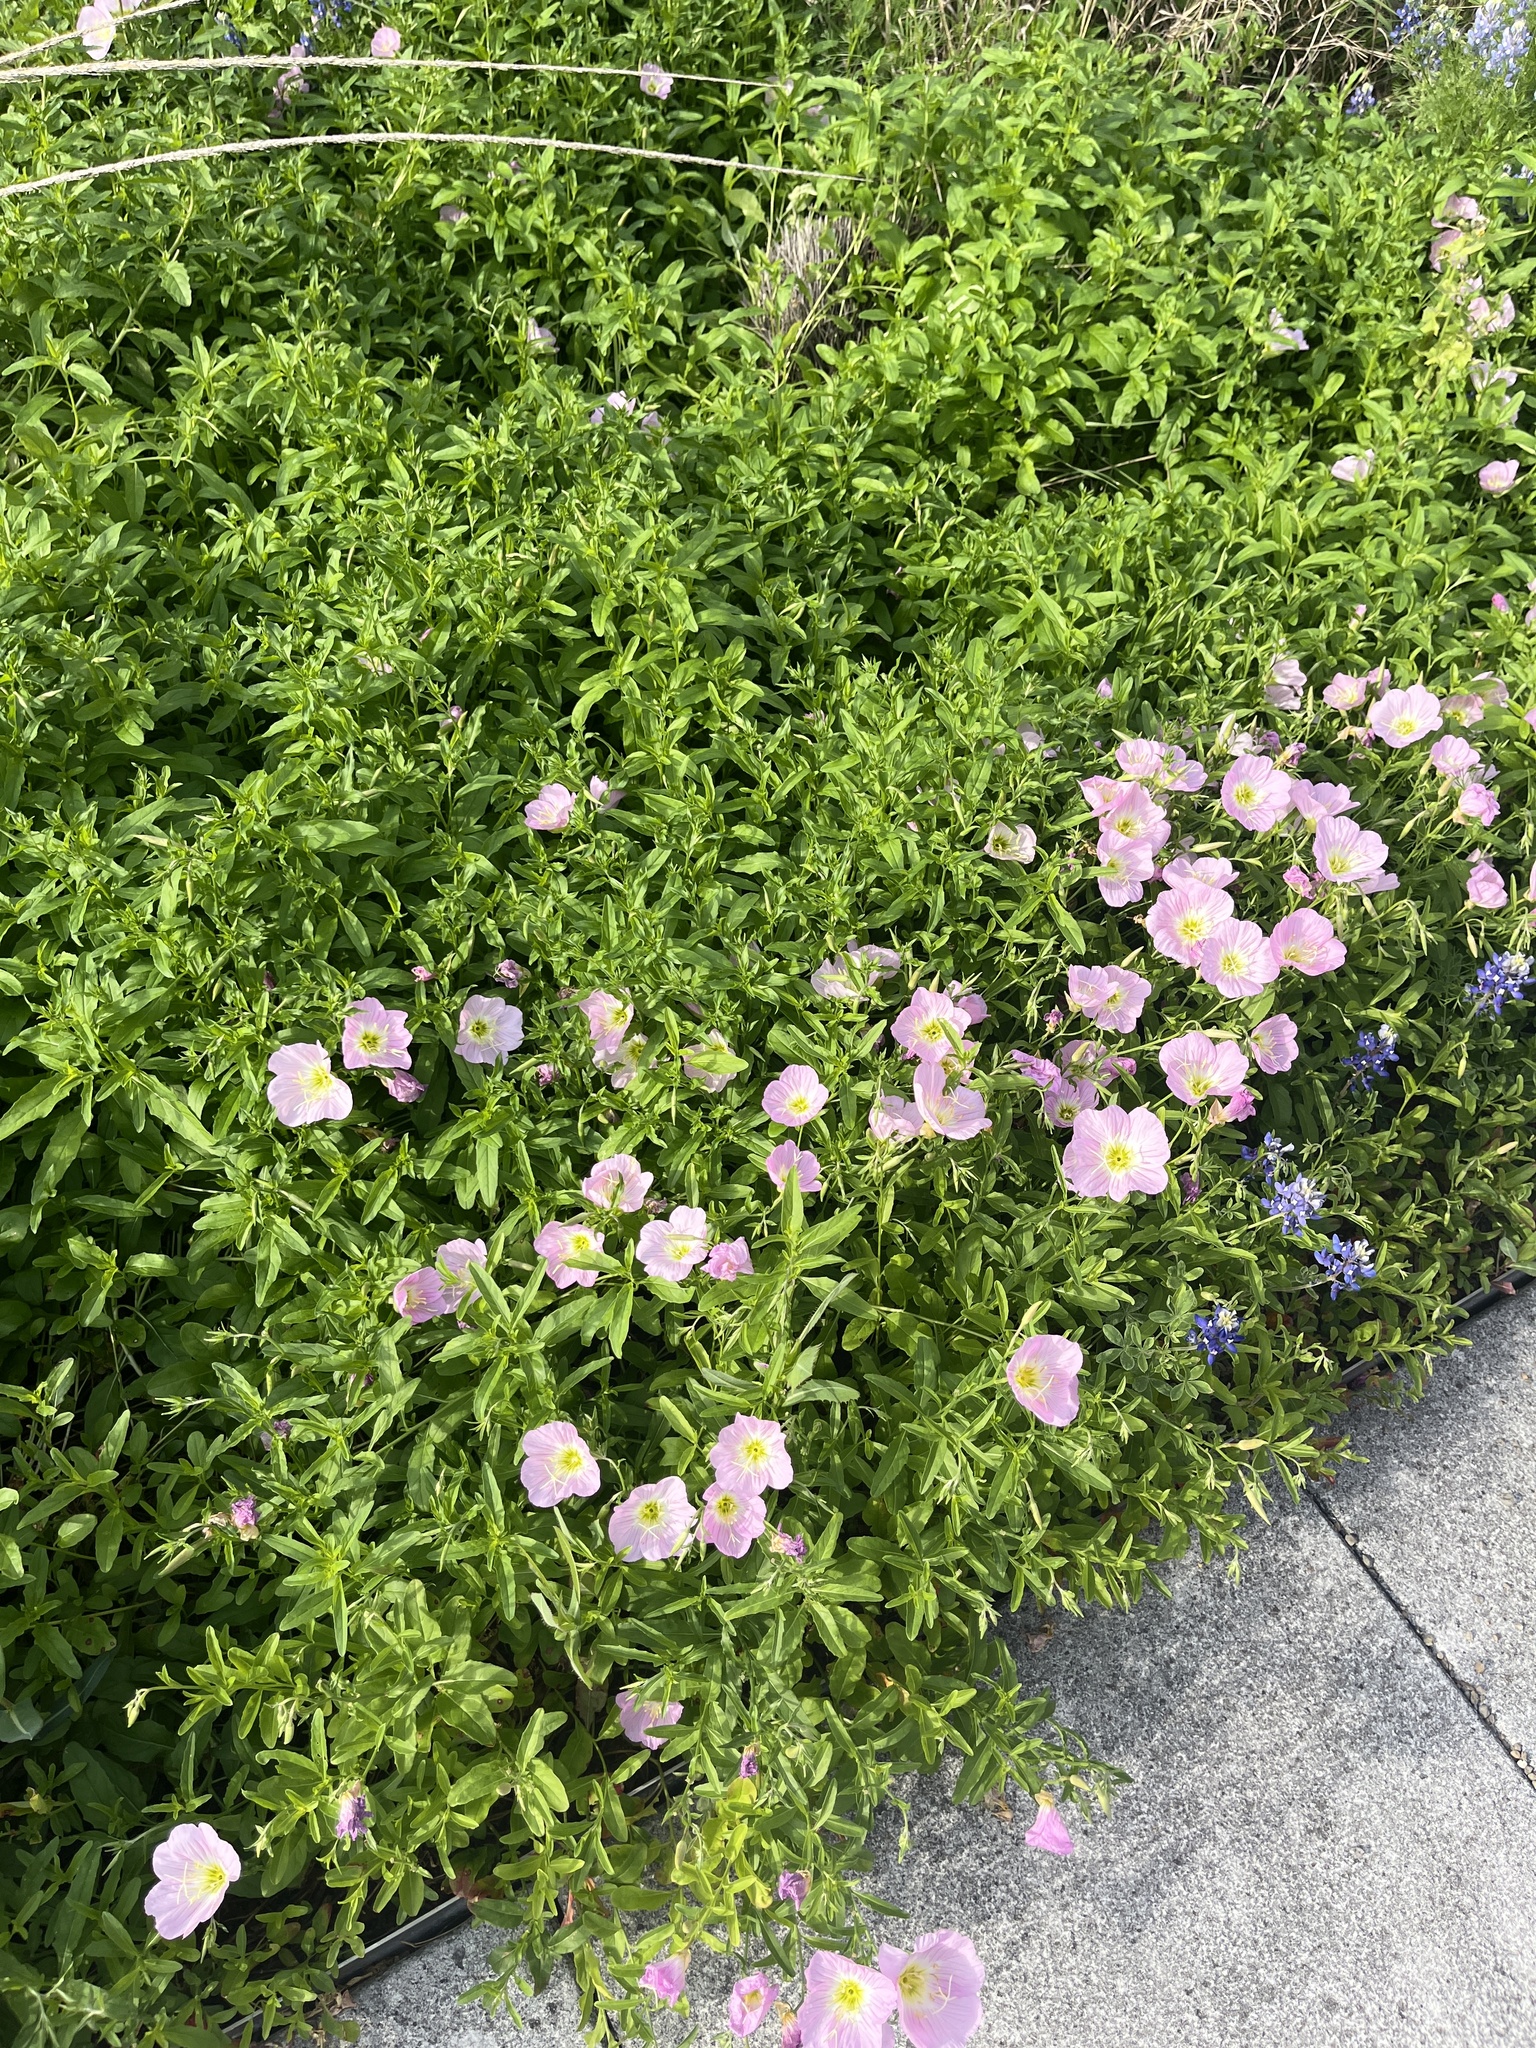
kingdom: Plantae
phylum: Tracheophyta
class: Magnoliopsida
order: Myrtales
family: Onagraceae
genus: Oenothera
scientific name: Oenothera speciosa
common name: White evening-primrose
